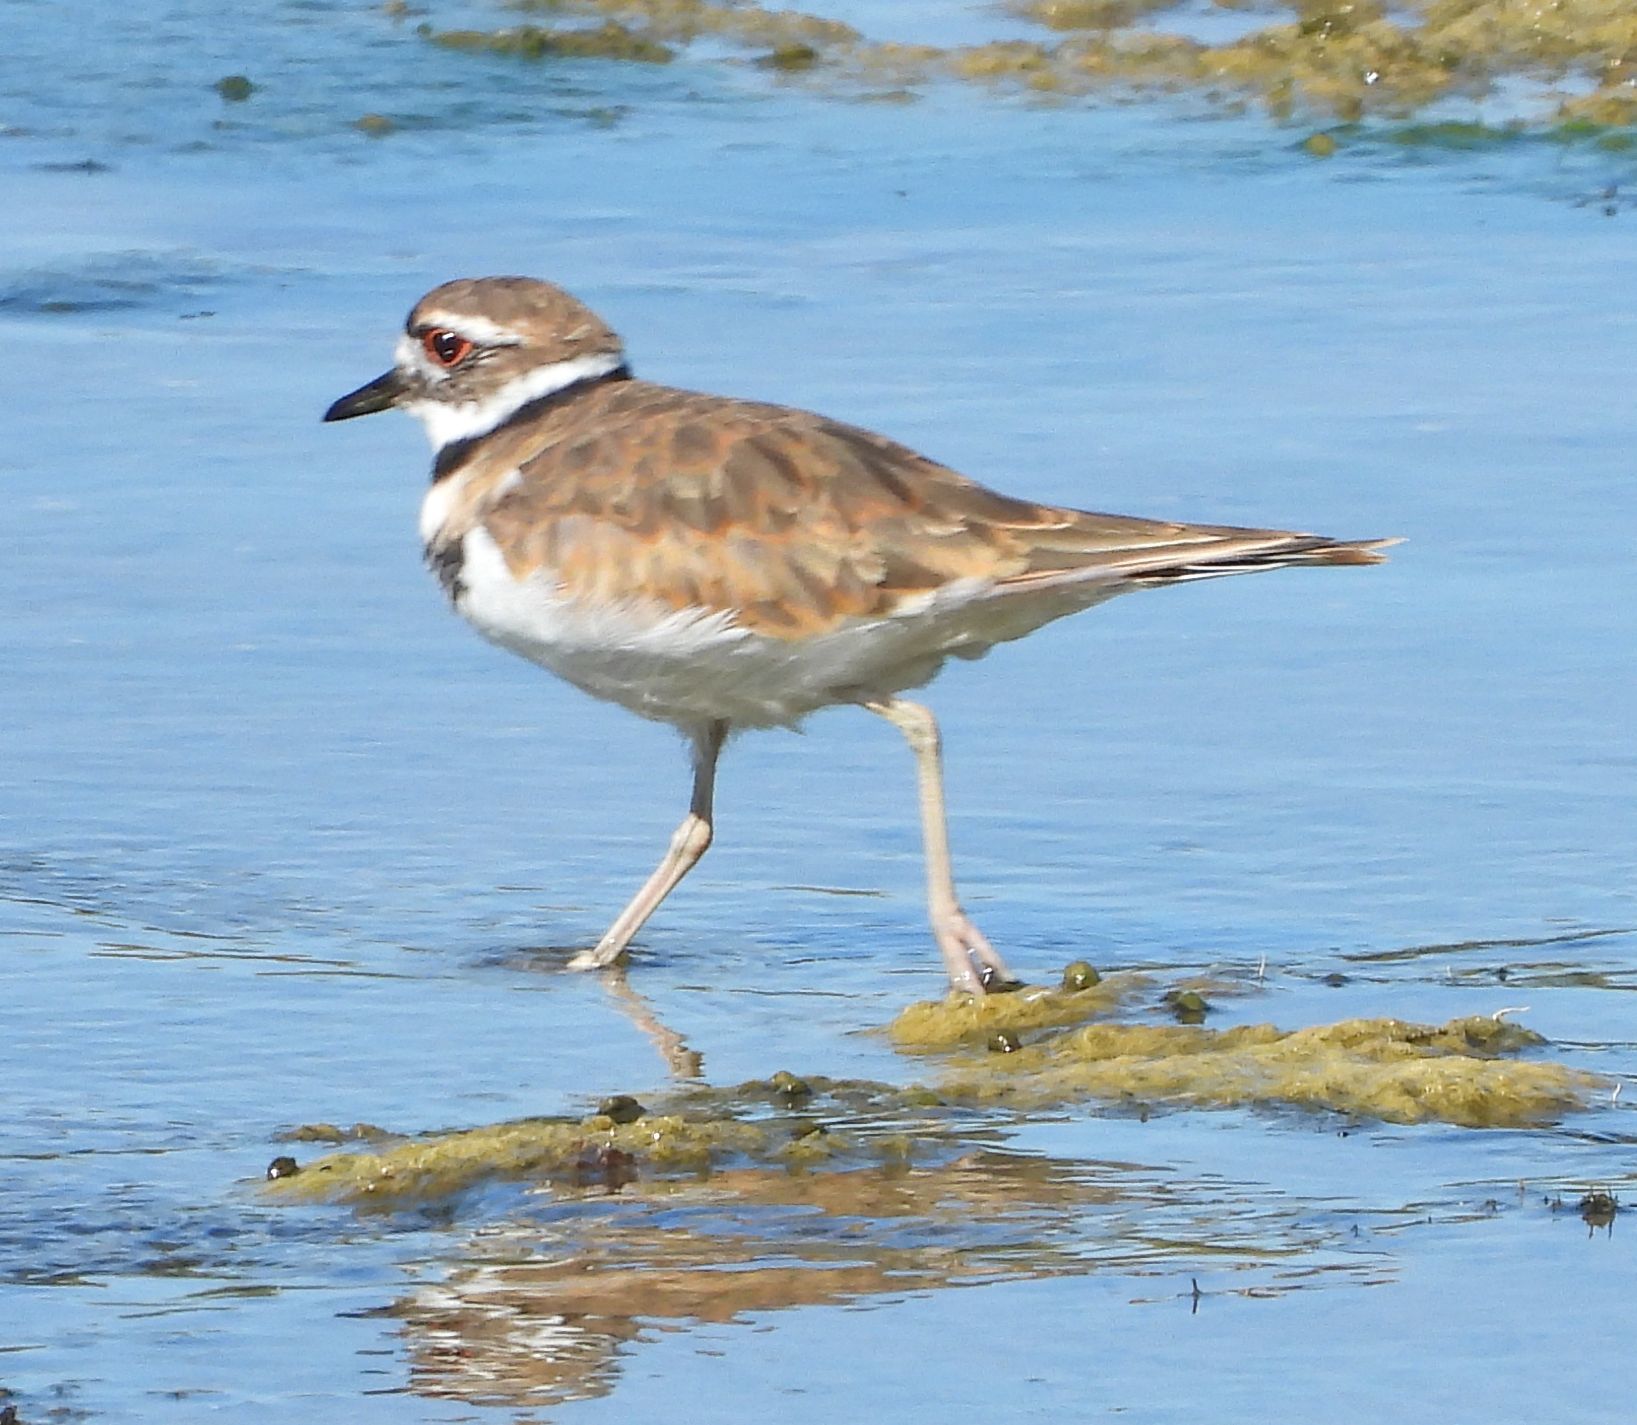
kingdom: Animalia
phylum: Chordata
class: Aves
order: Charadriiformes
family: Charadriidae
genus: Charadrius
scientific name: Charadrius vociferus
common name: Killdeer
